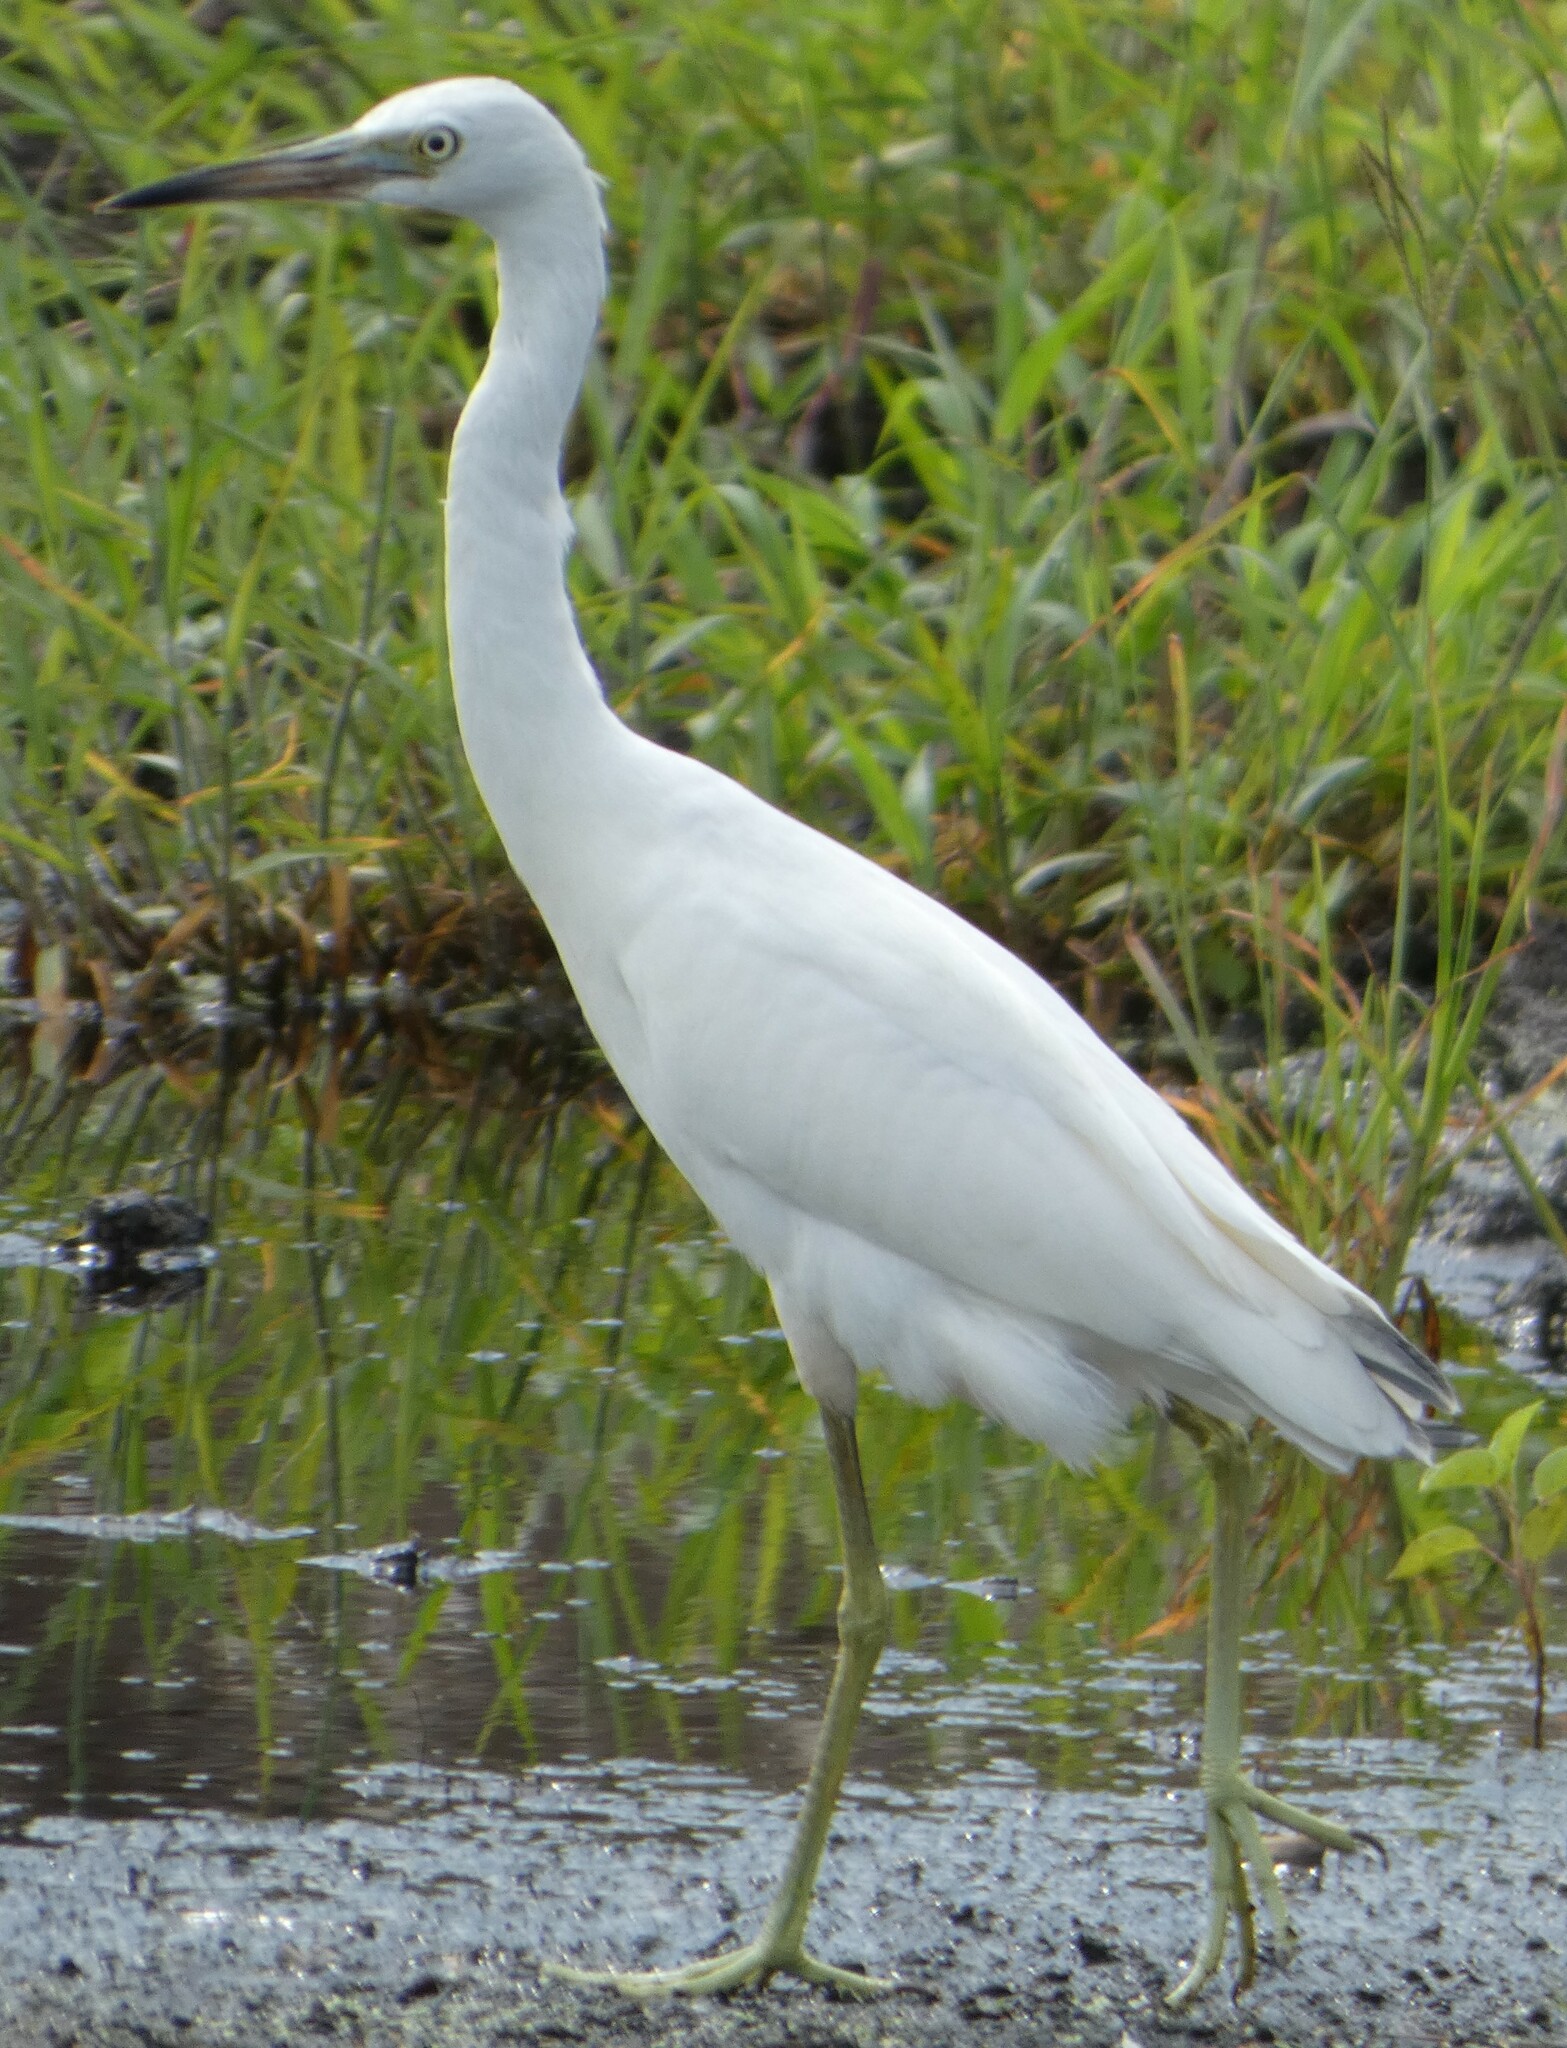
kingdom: Animalia
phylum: Chordata
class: Aves
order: Pelecaniformes
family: Ardeidae
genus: Egretta
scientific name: Egretta caerulea
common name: Little blue heron
